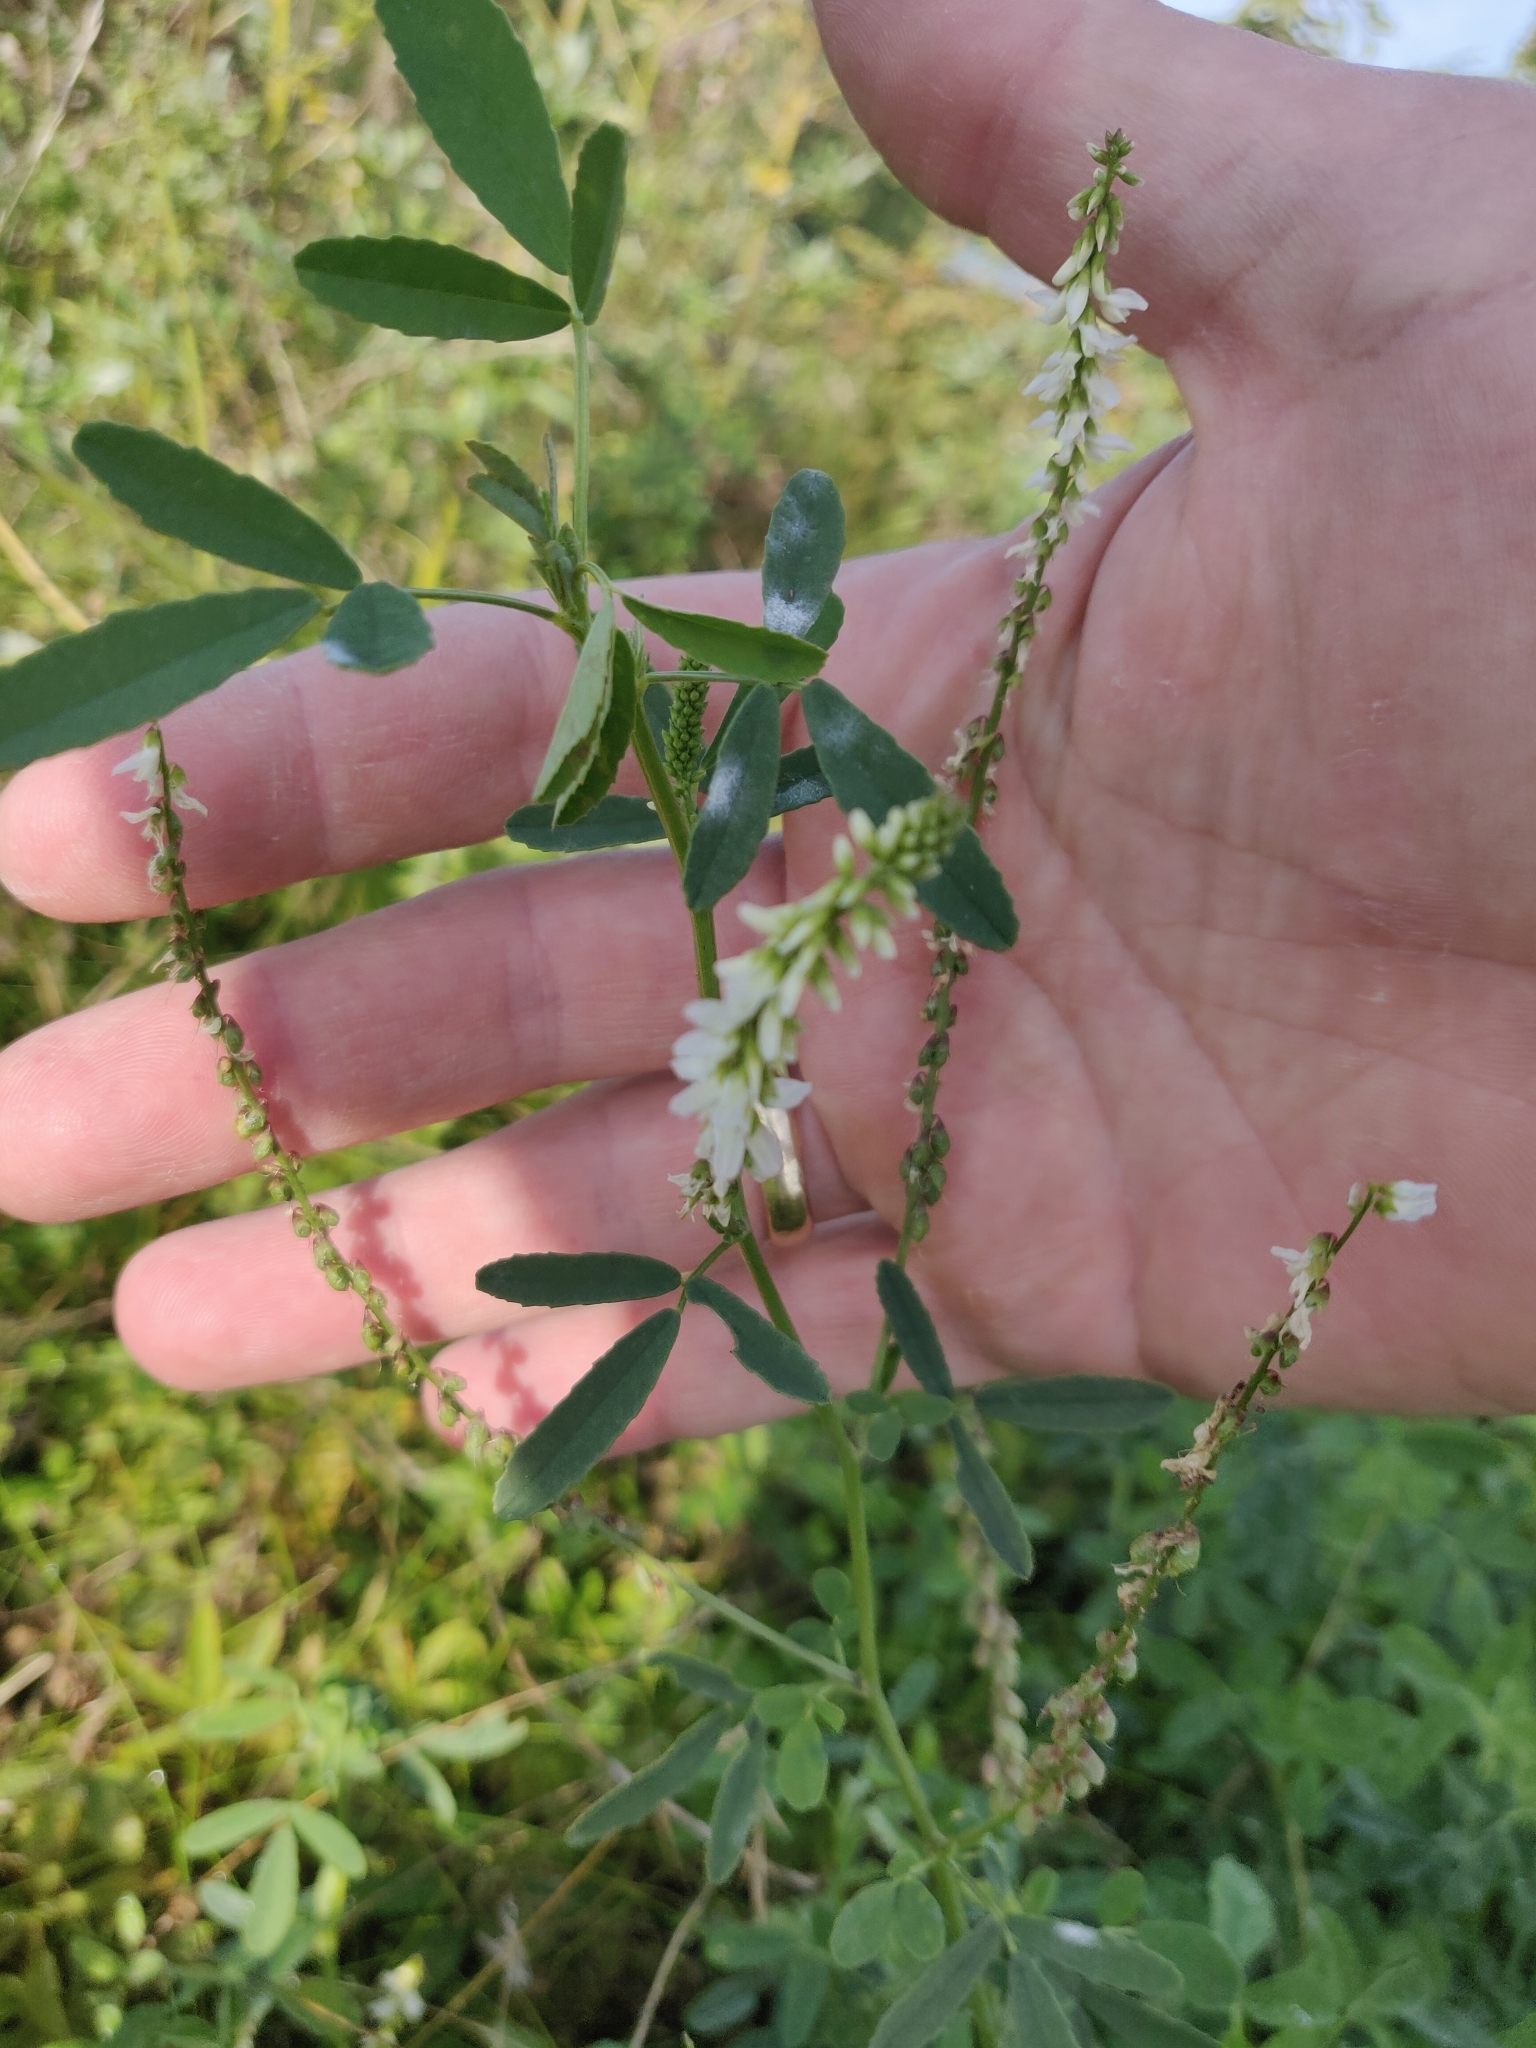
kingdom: Plantae
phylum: Tracheophyta
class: Magnoliopsida
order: Fabales
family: Fabaceae
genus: Melilotus
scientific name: Melilotus albus
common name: White melilot
